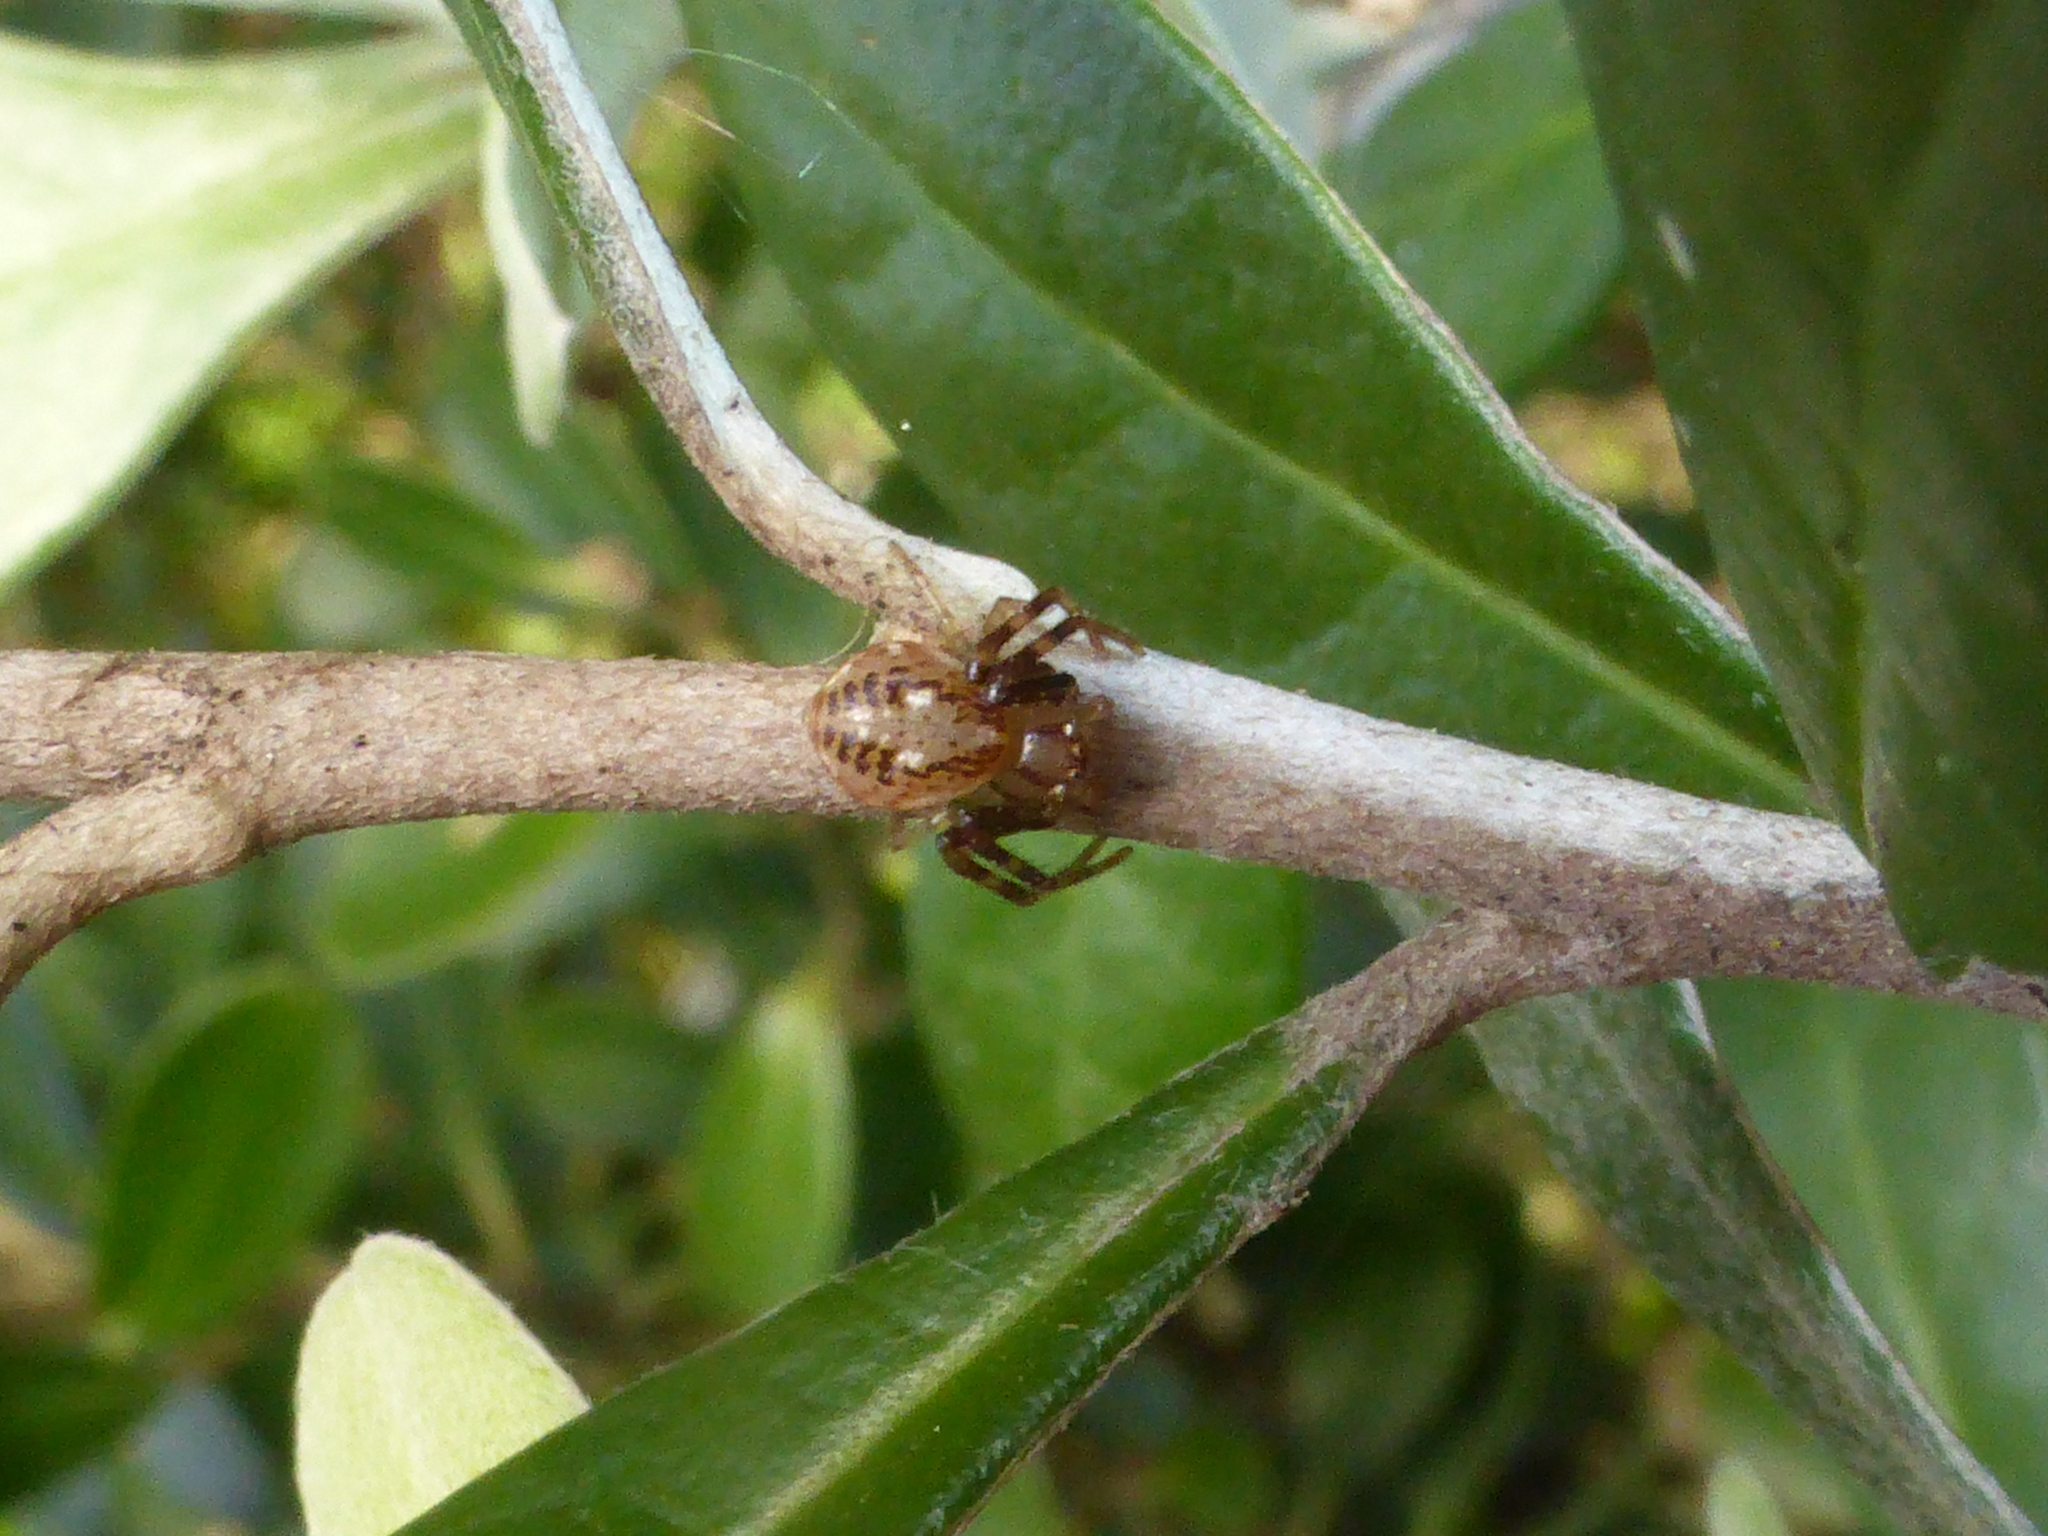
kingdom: Animalia
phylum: Arthropoda
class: Arachnida
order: Araneae
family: Thomisidae
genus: Diaea
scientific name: Diaea ambara
